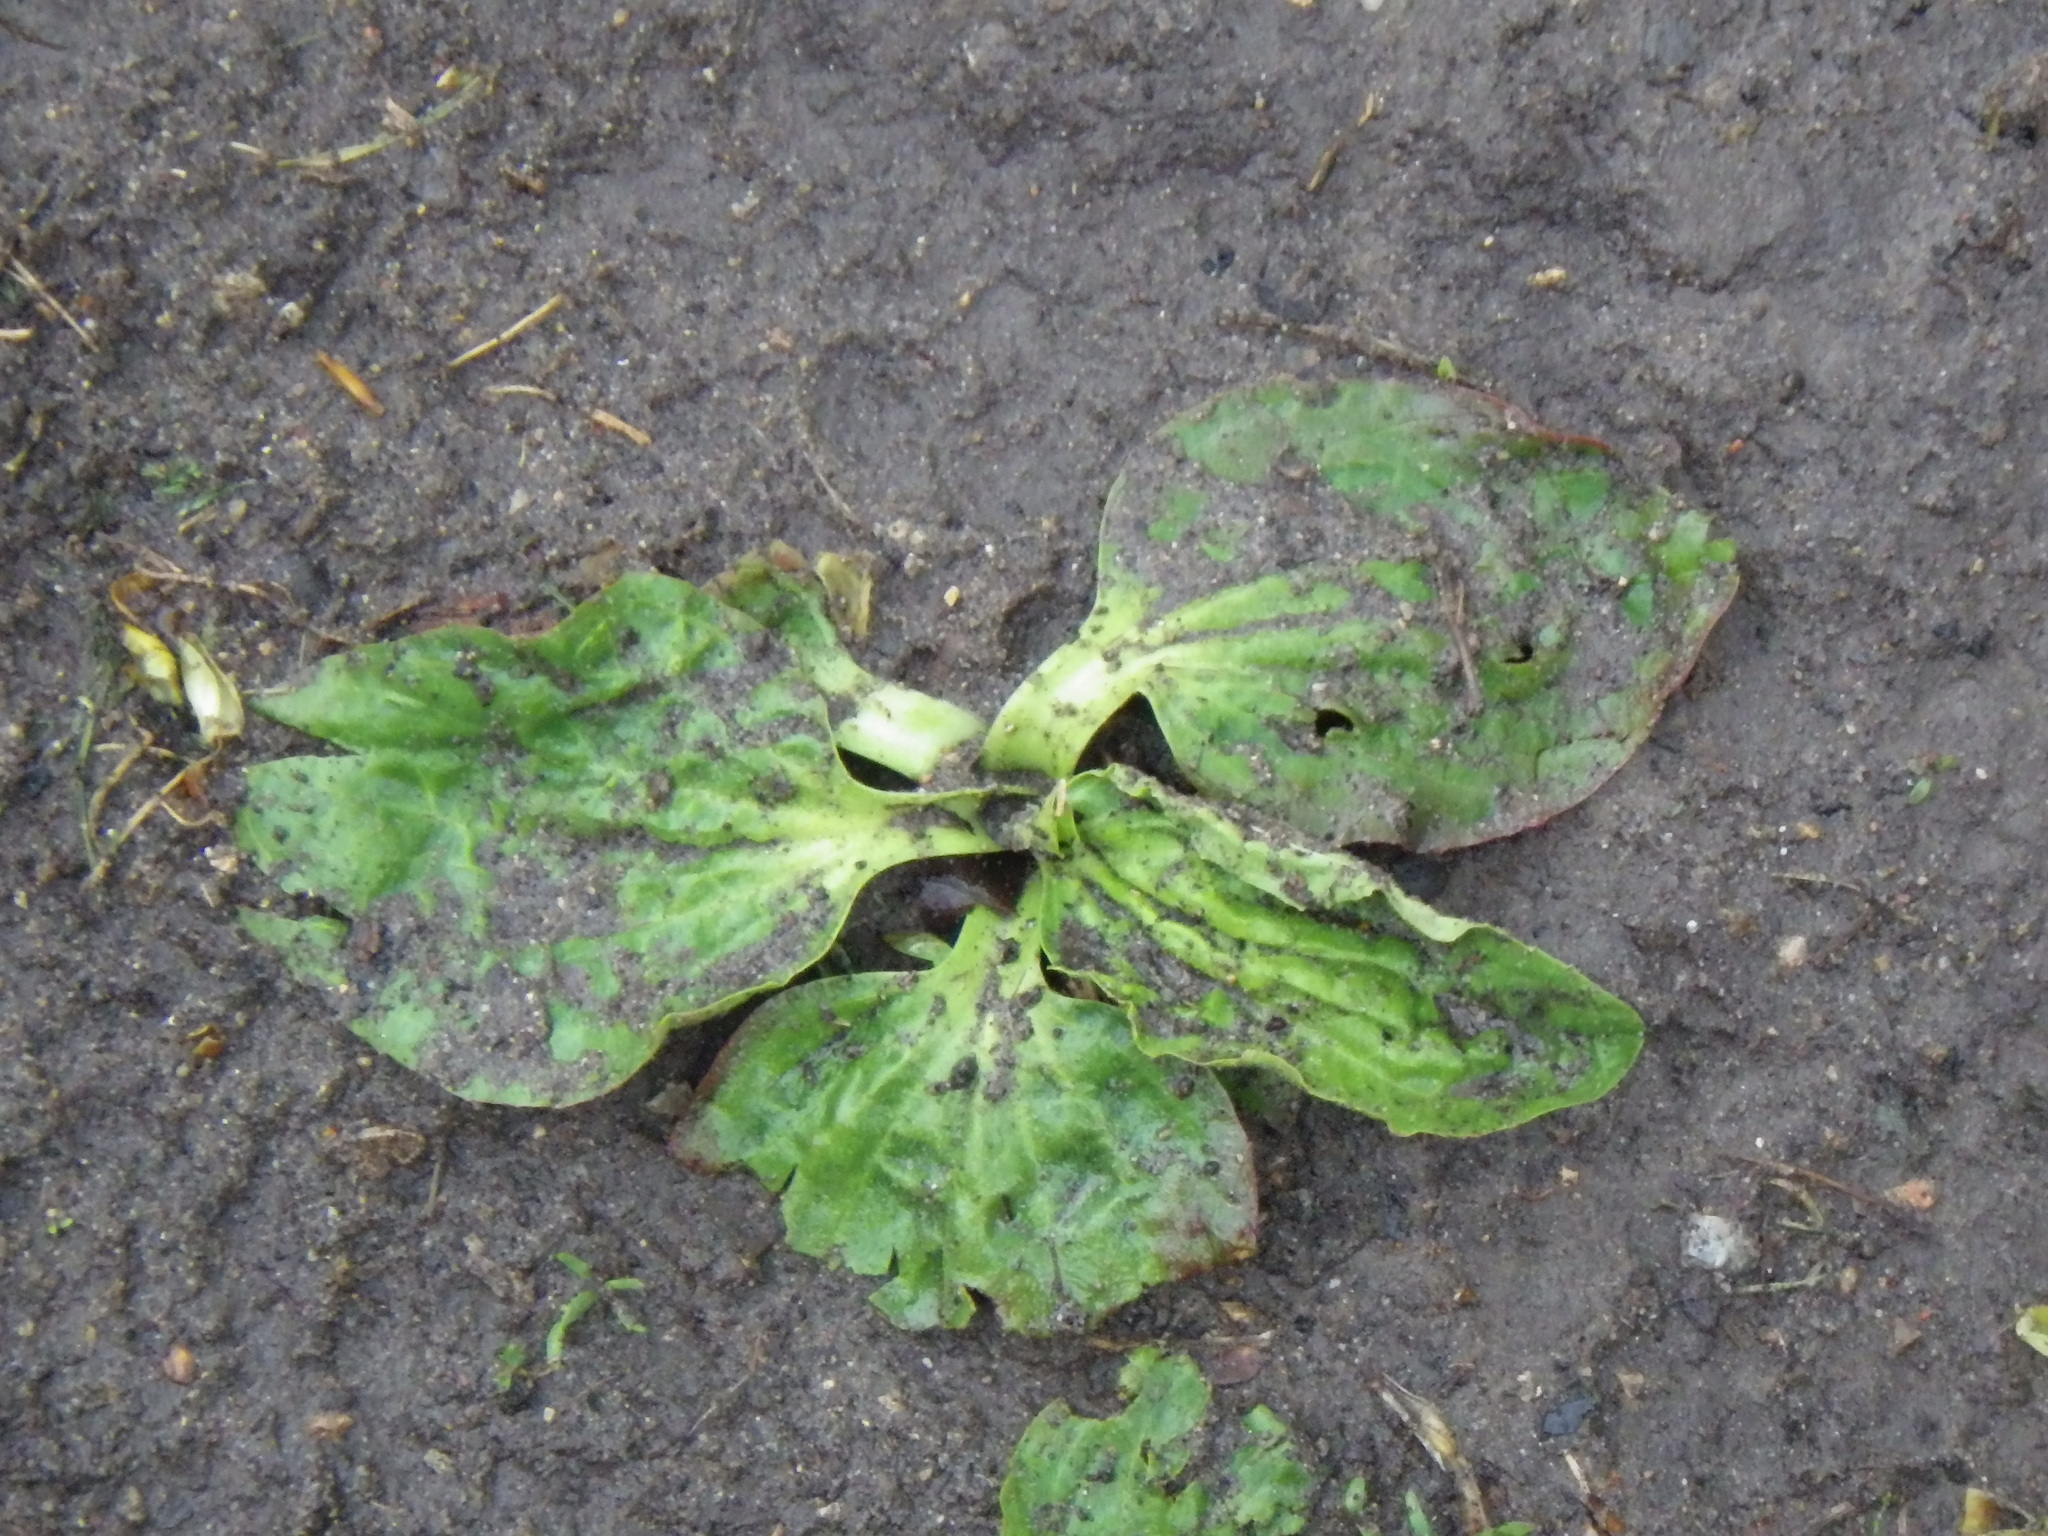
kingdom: Plantae
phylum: Tracheophyta
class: Magnoliopsida
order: Lamiales
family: Plantaginaceae
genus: Plantago
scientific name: Plantago major
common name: Common plantain
